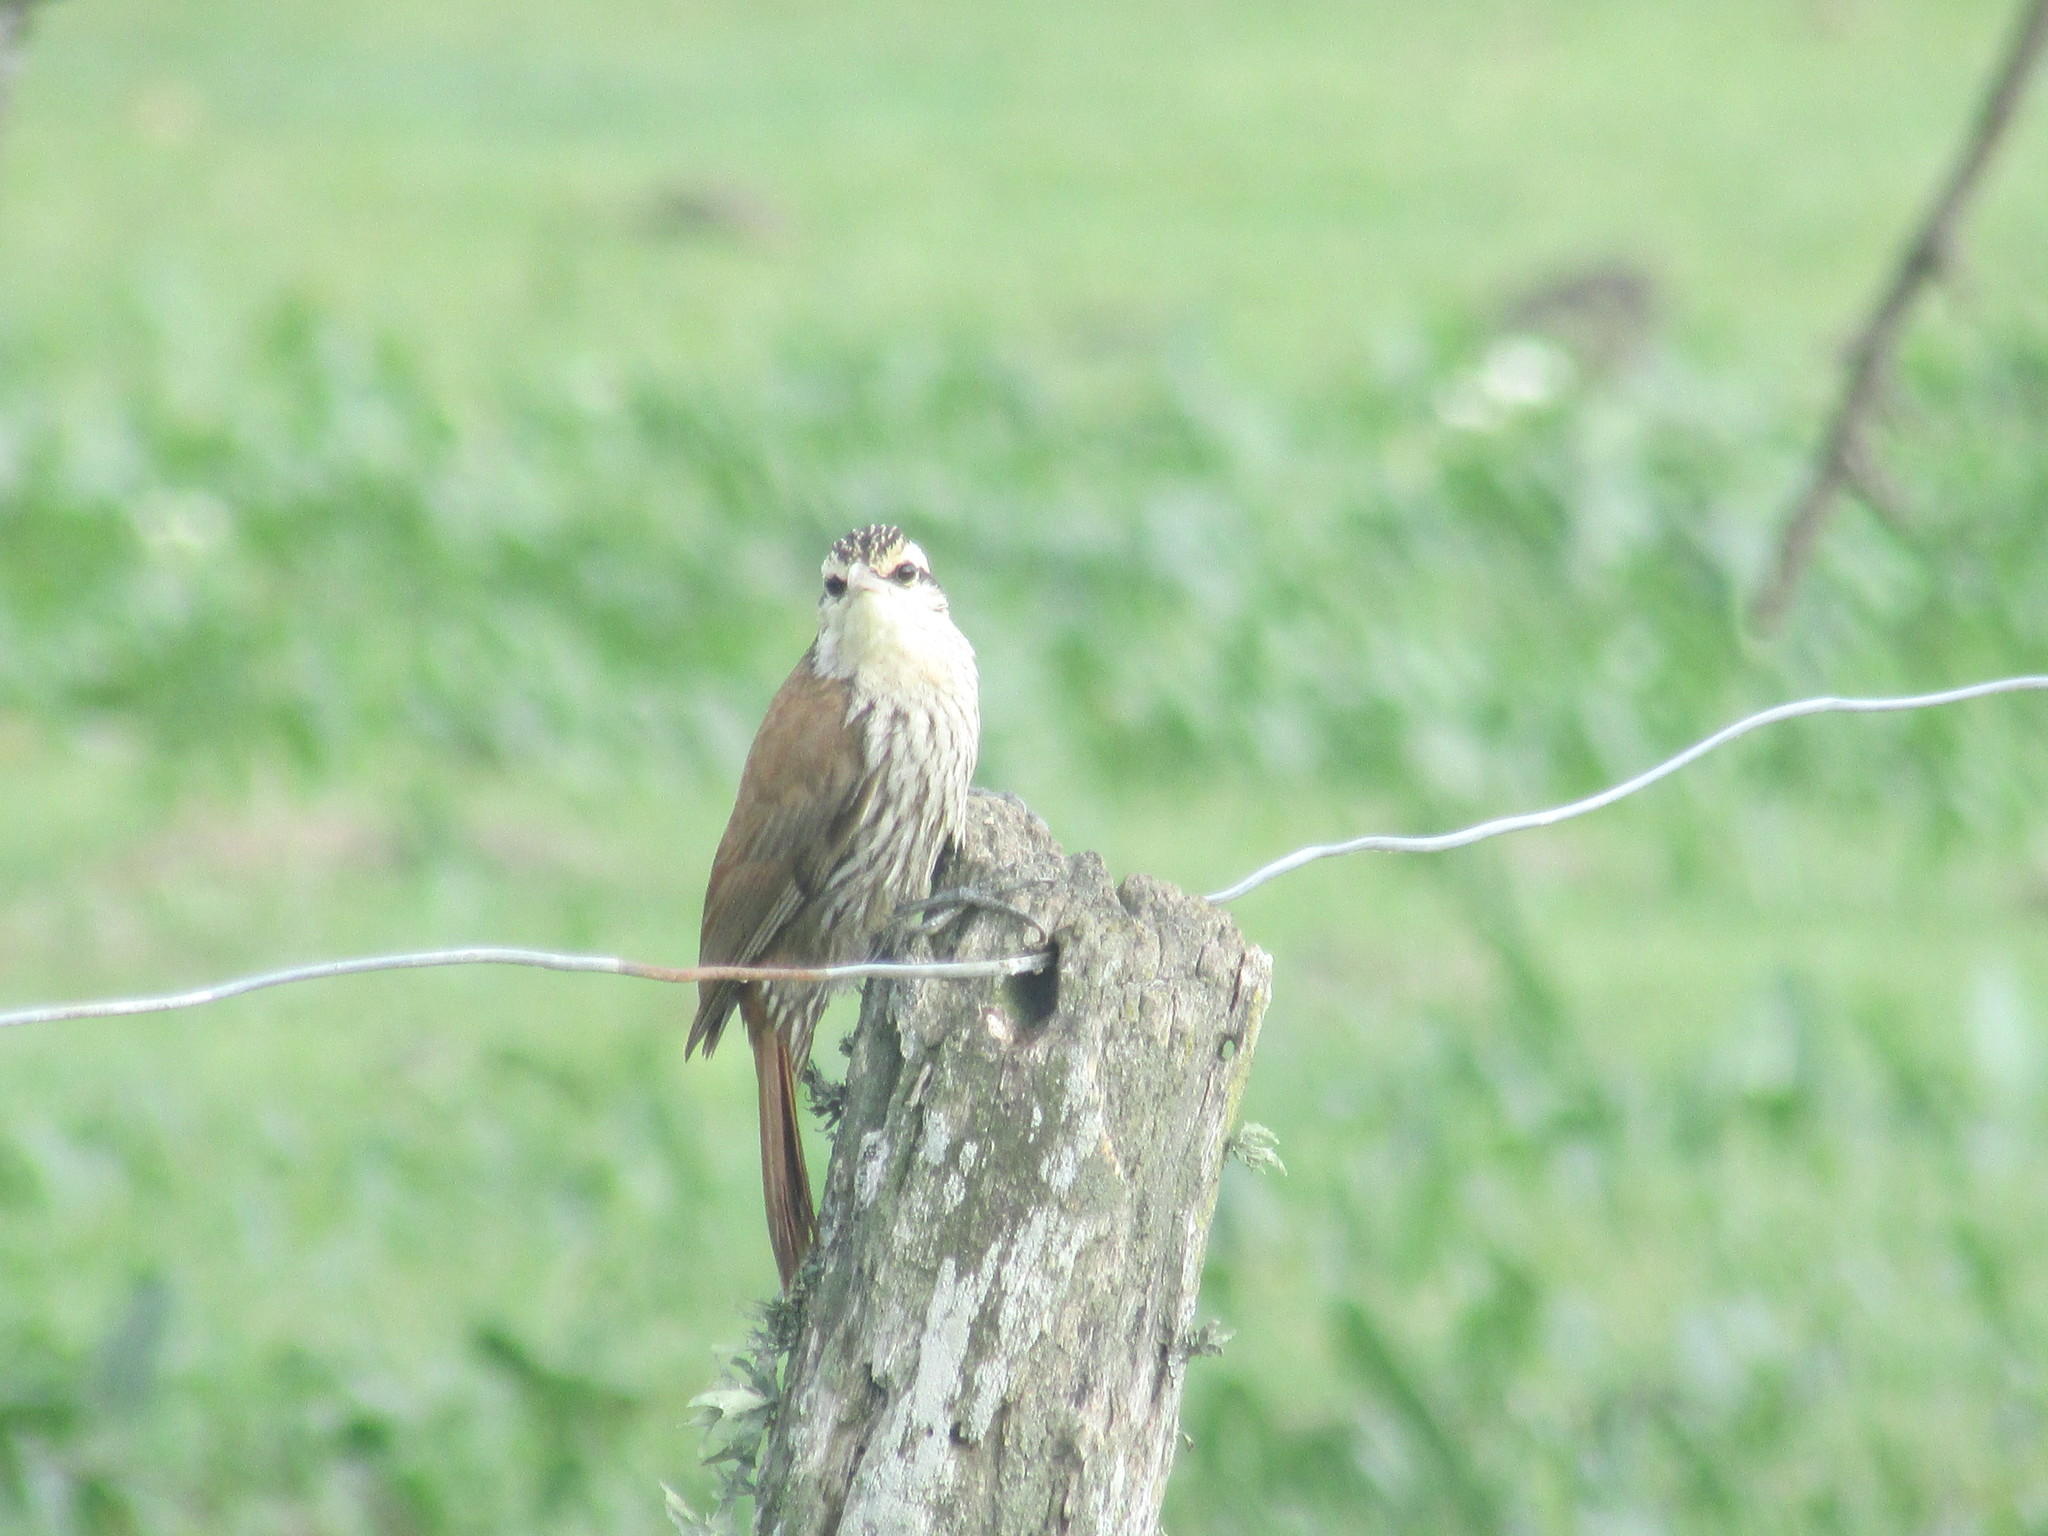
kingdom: Animalia
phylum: Chordata
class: Aves
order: Passeriformes
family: Furnariidae
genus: Lepidocolaptes
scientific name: Lepidocolaptes angustirostris
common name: Narrow-billed woodcreeper
